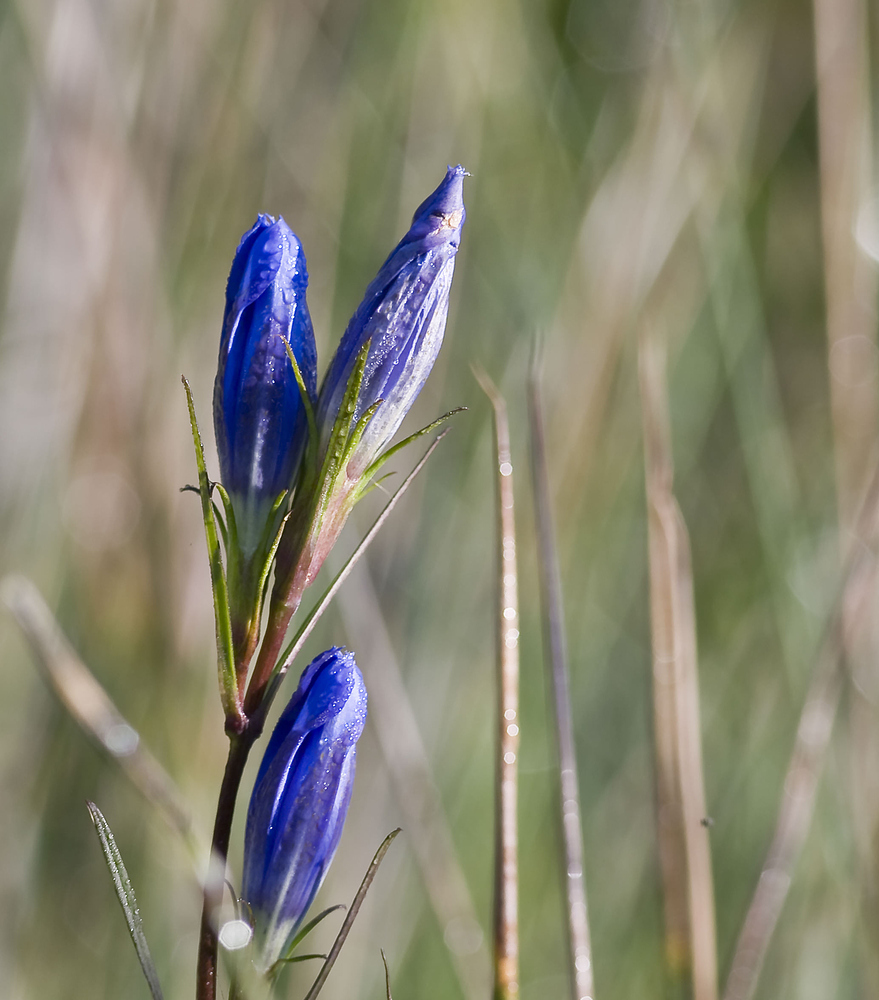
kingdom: Plantae
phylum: Tracheophyta
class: Magnoliopsida
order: Gentianales
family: Gentianaceae
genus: Gentiana
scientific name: Gentiana pneumonanthe
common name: Marsh gentian
